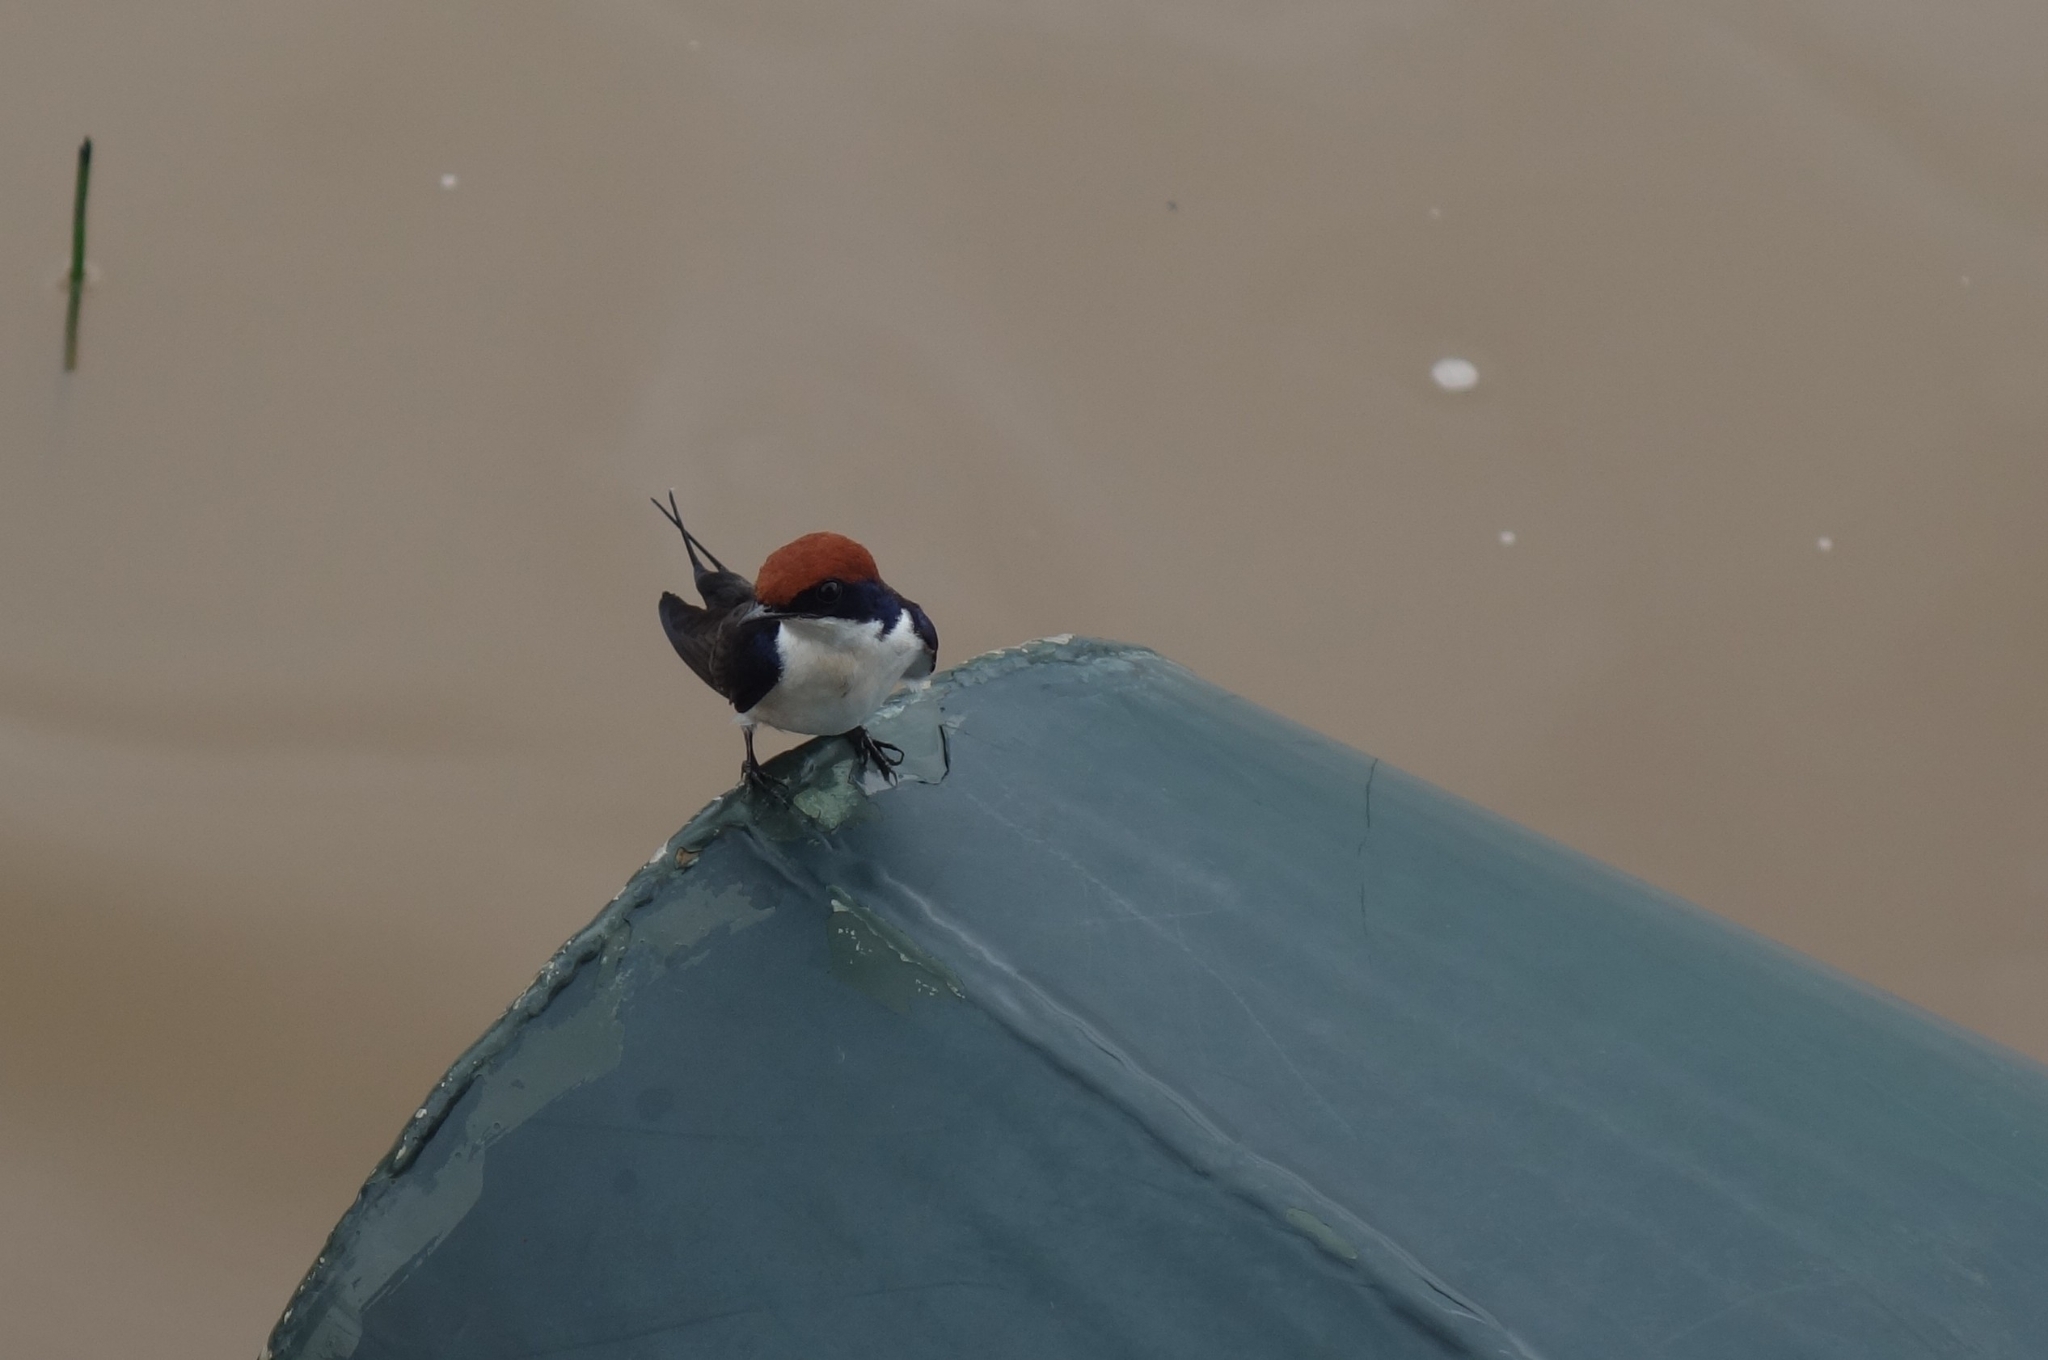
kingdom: Animalia
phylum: Chordata
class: Aves
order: Passeriformes
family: Hirundinidae
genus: Hirundo
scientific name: Hirundo smithii
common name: Wire-tailed swallow
